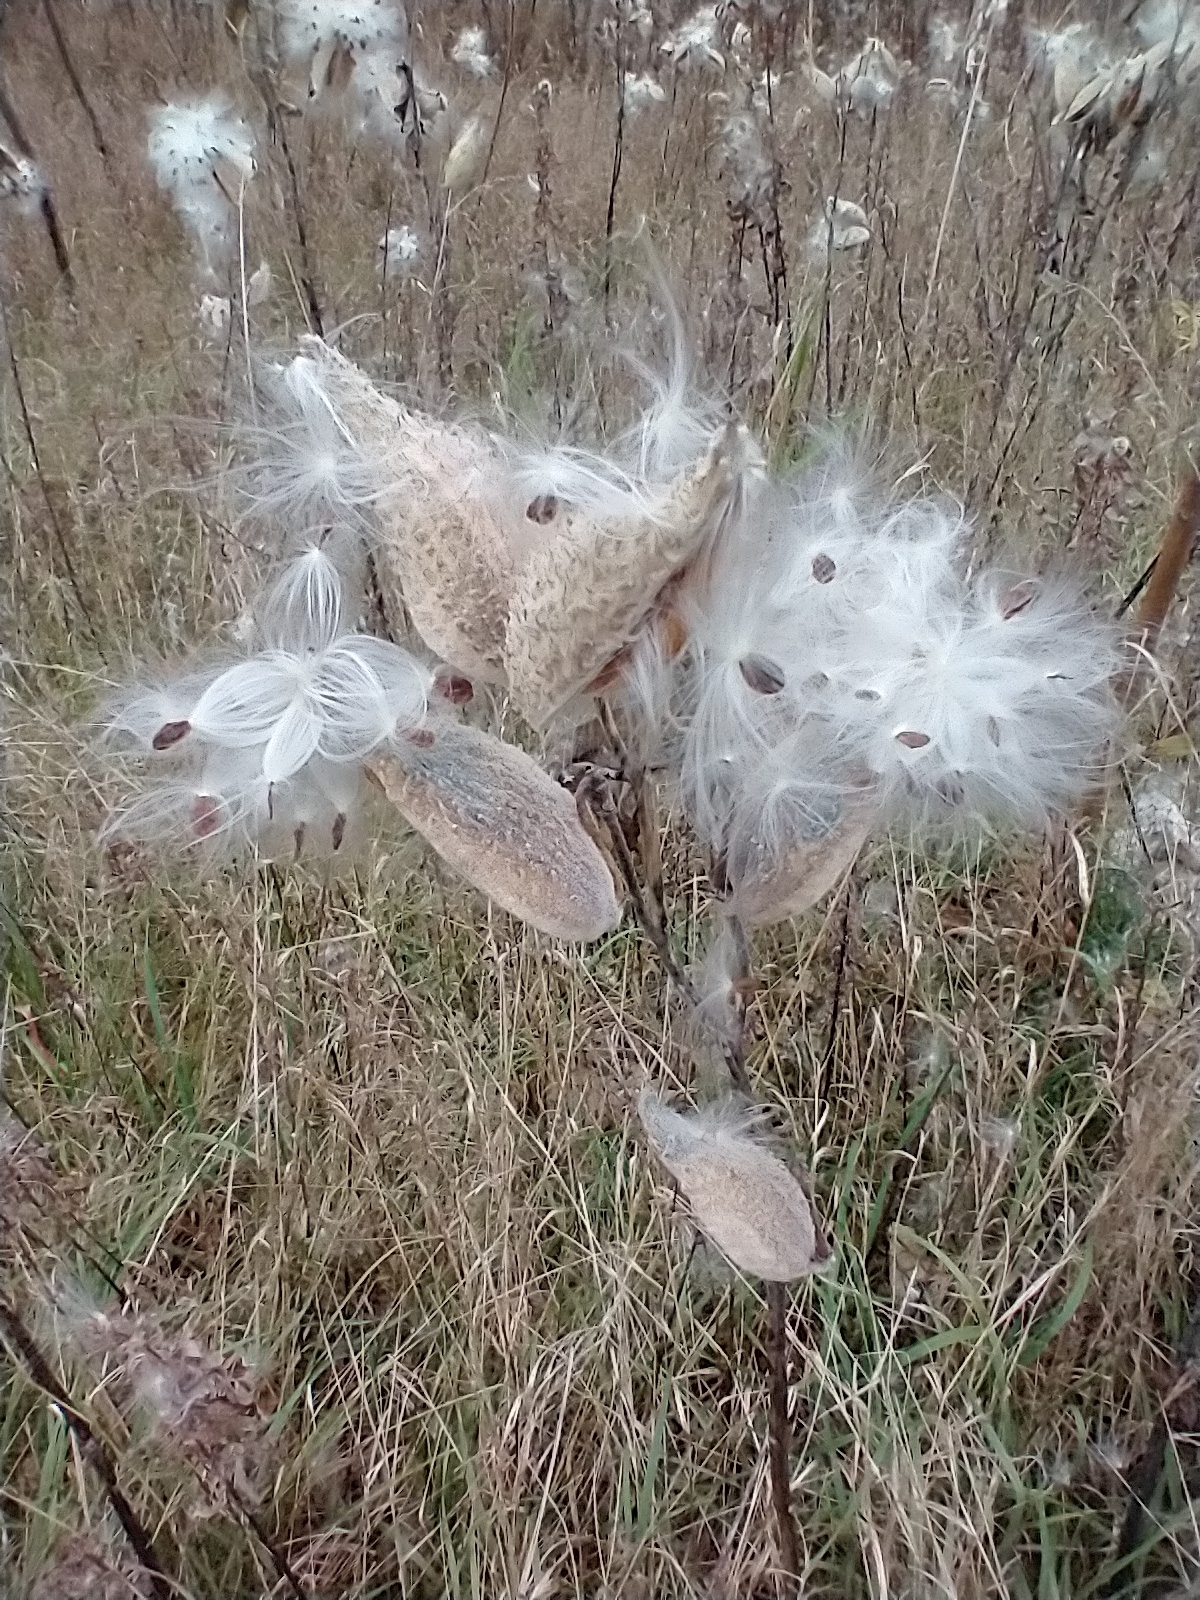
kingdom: Plantae
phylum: Tracheophyta
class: Magnoliopsida
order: Gentianales
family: Apocynaceae
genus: Asclepias
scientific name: Asclepias syriaca
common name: Common milkweed
